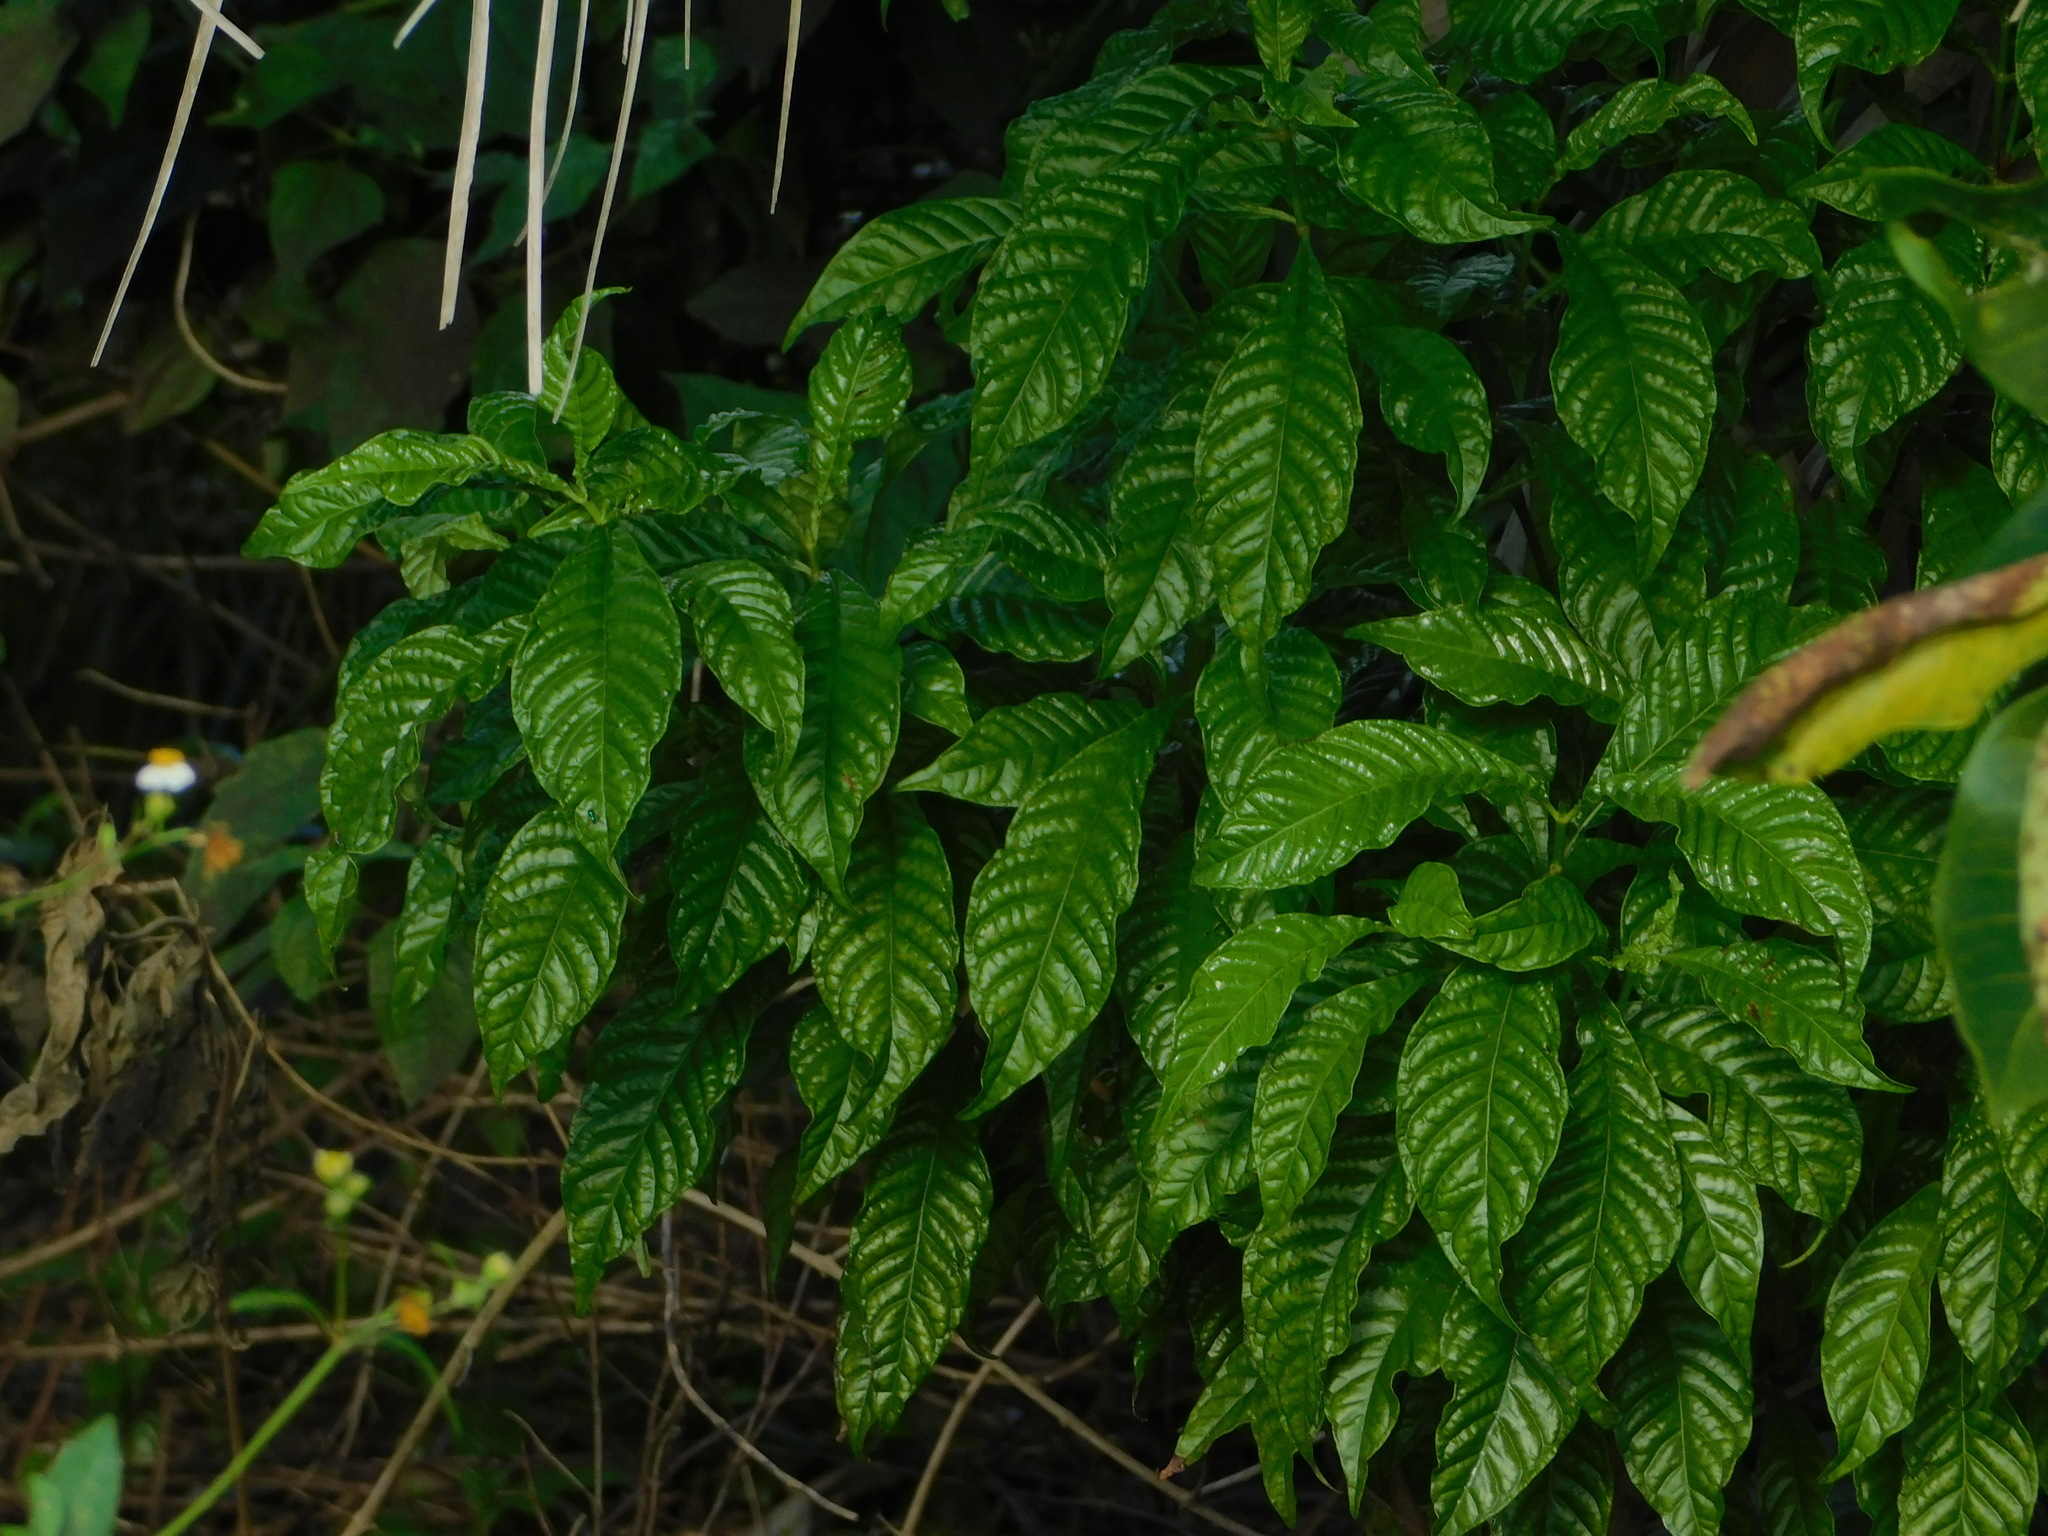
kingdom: Plantae
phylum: Tracheophyta
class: Magnoliopsida
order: Gentianales
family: Rubiaceae
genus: Psychotria
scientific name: Psychotria nervosa
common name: Bastard cankerberry
